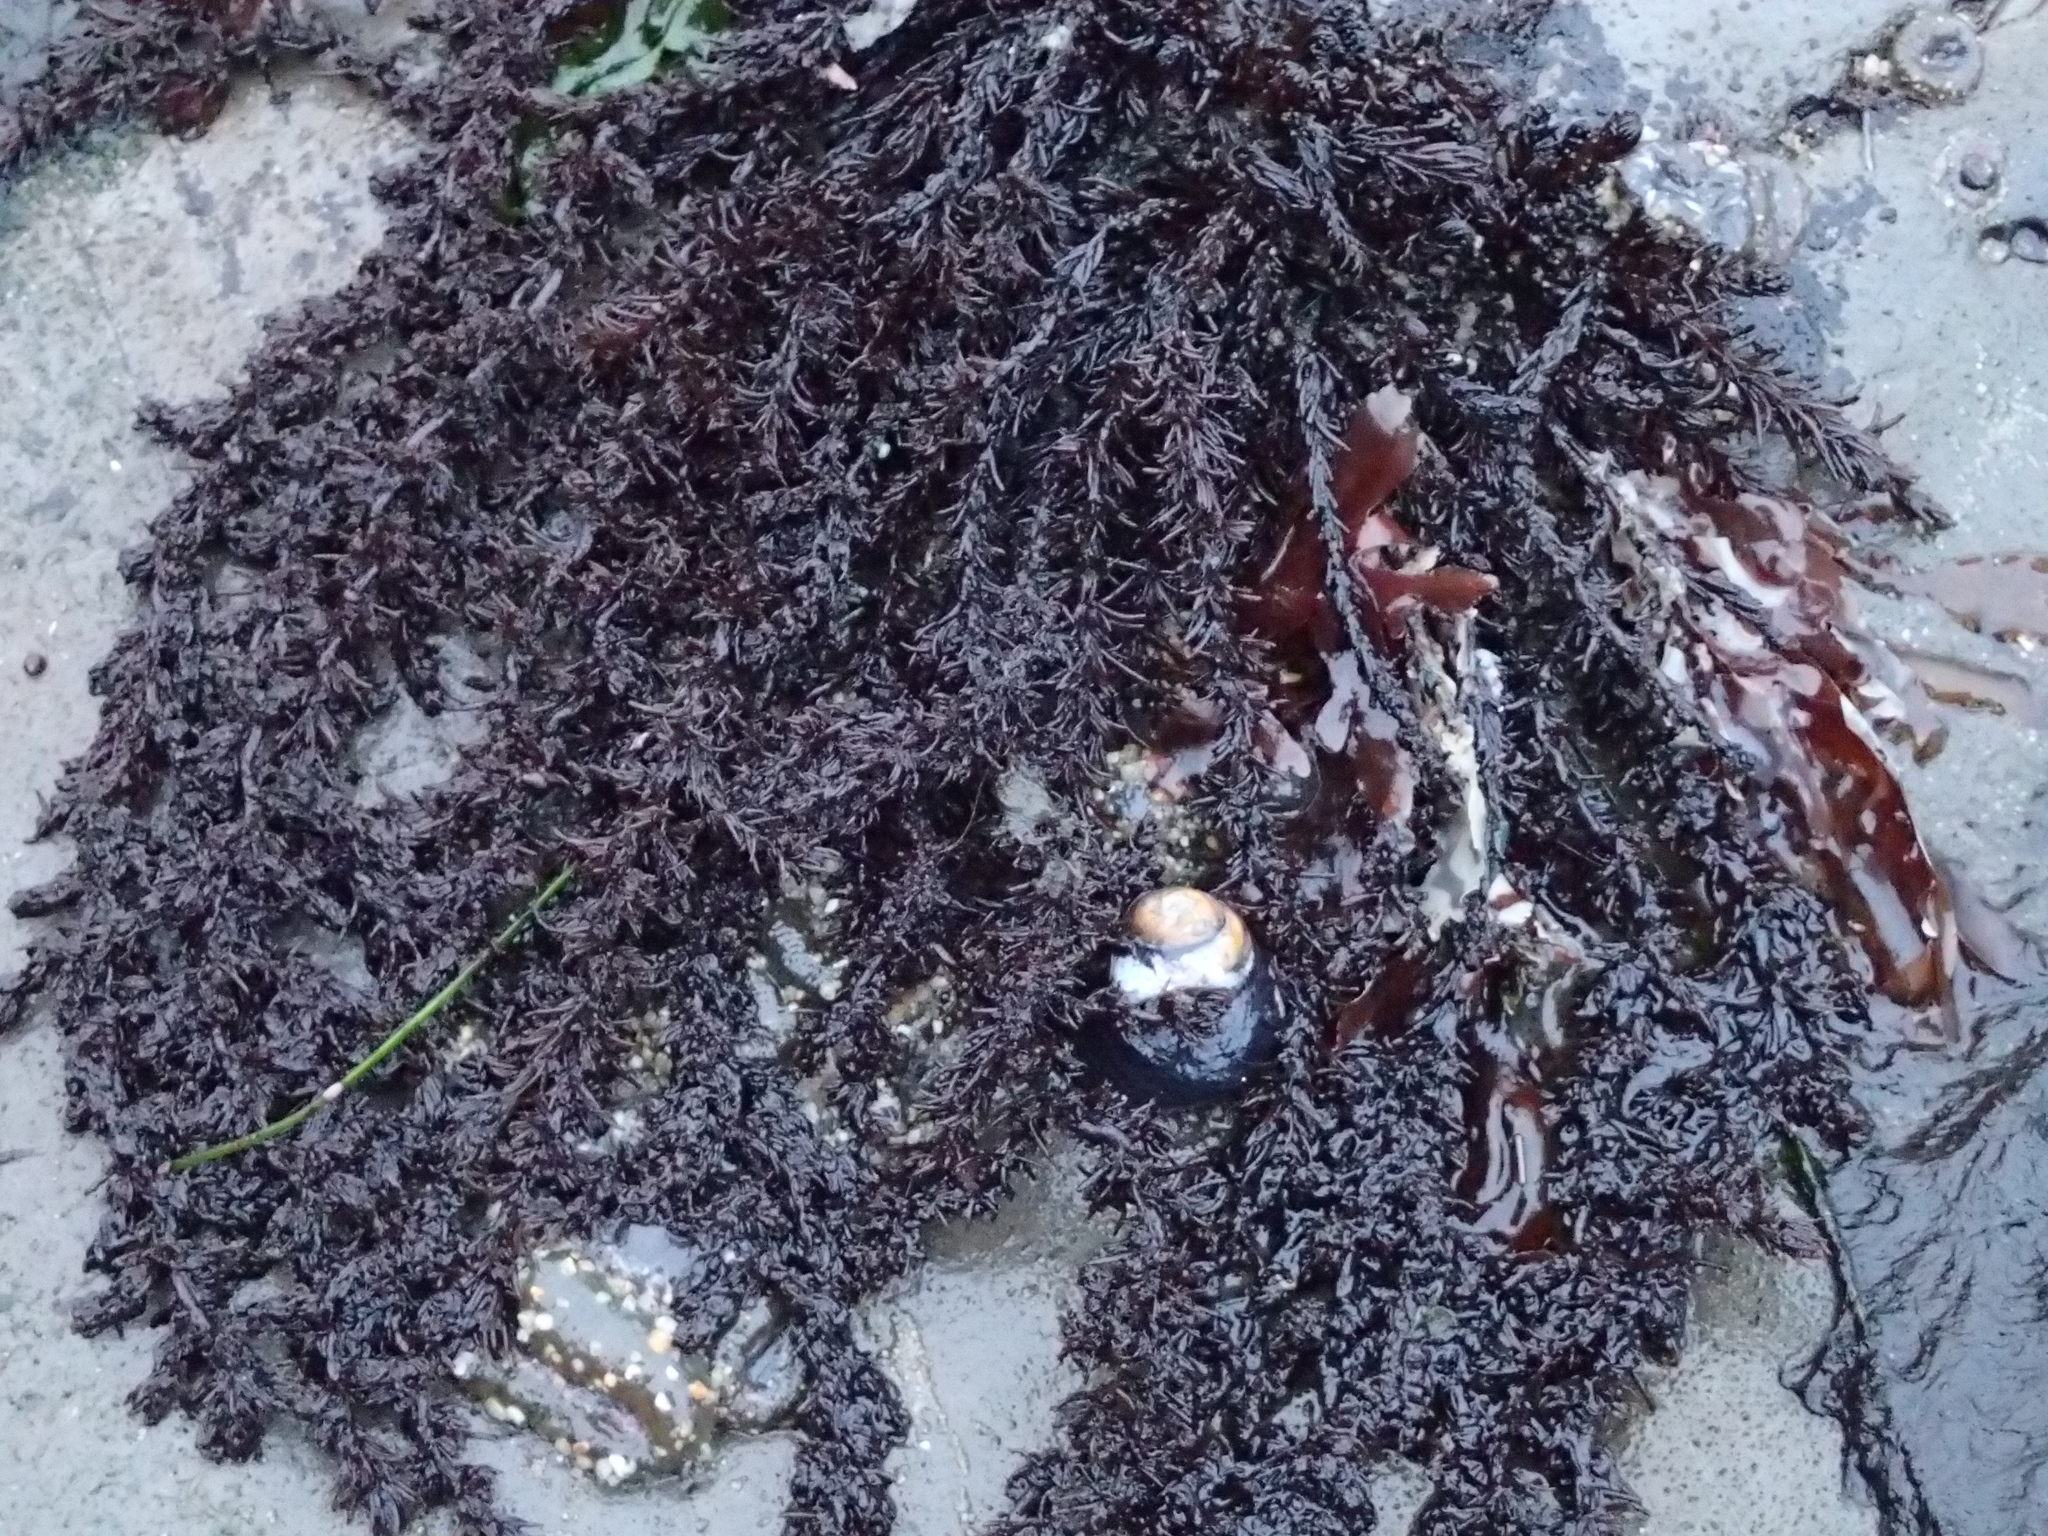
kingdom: Plantae
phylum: Rhodophyta
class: Florideophyceae
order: Ceramiales
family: Rhodomelaceae
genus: Neorhodomela
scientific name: Neorhodomela larix
